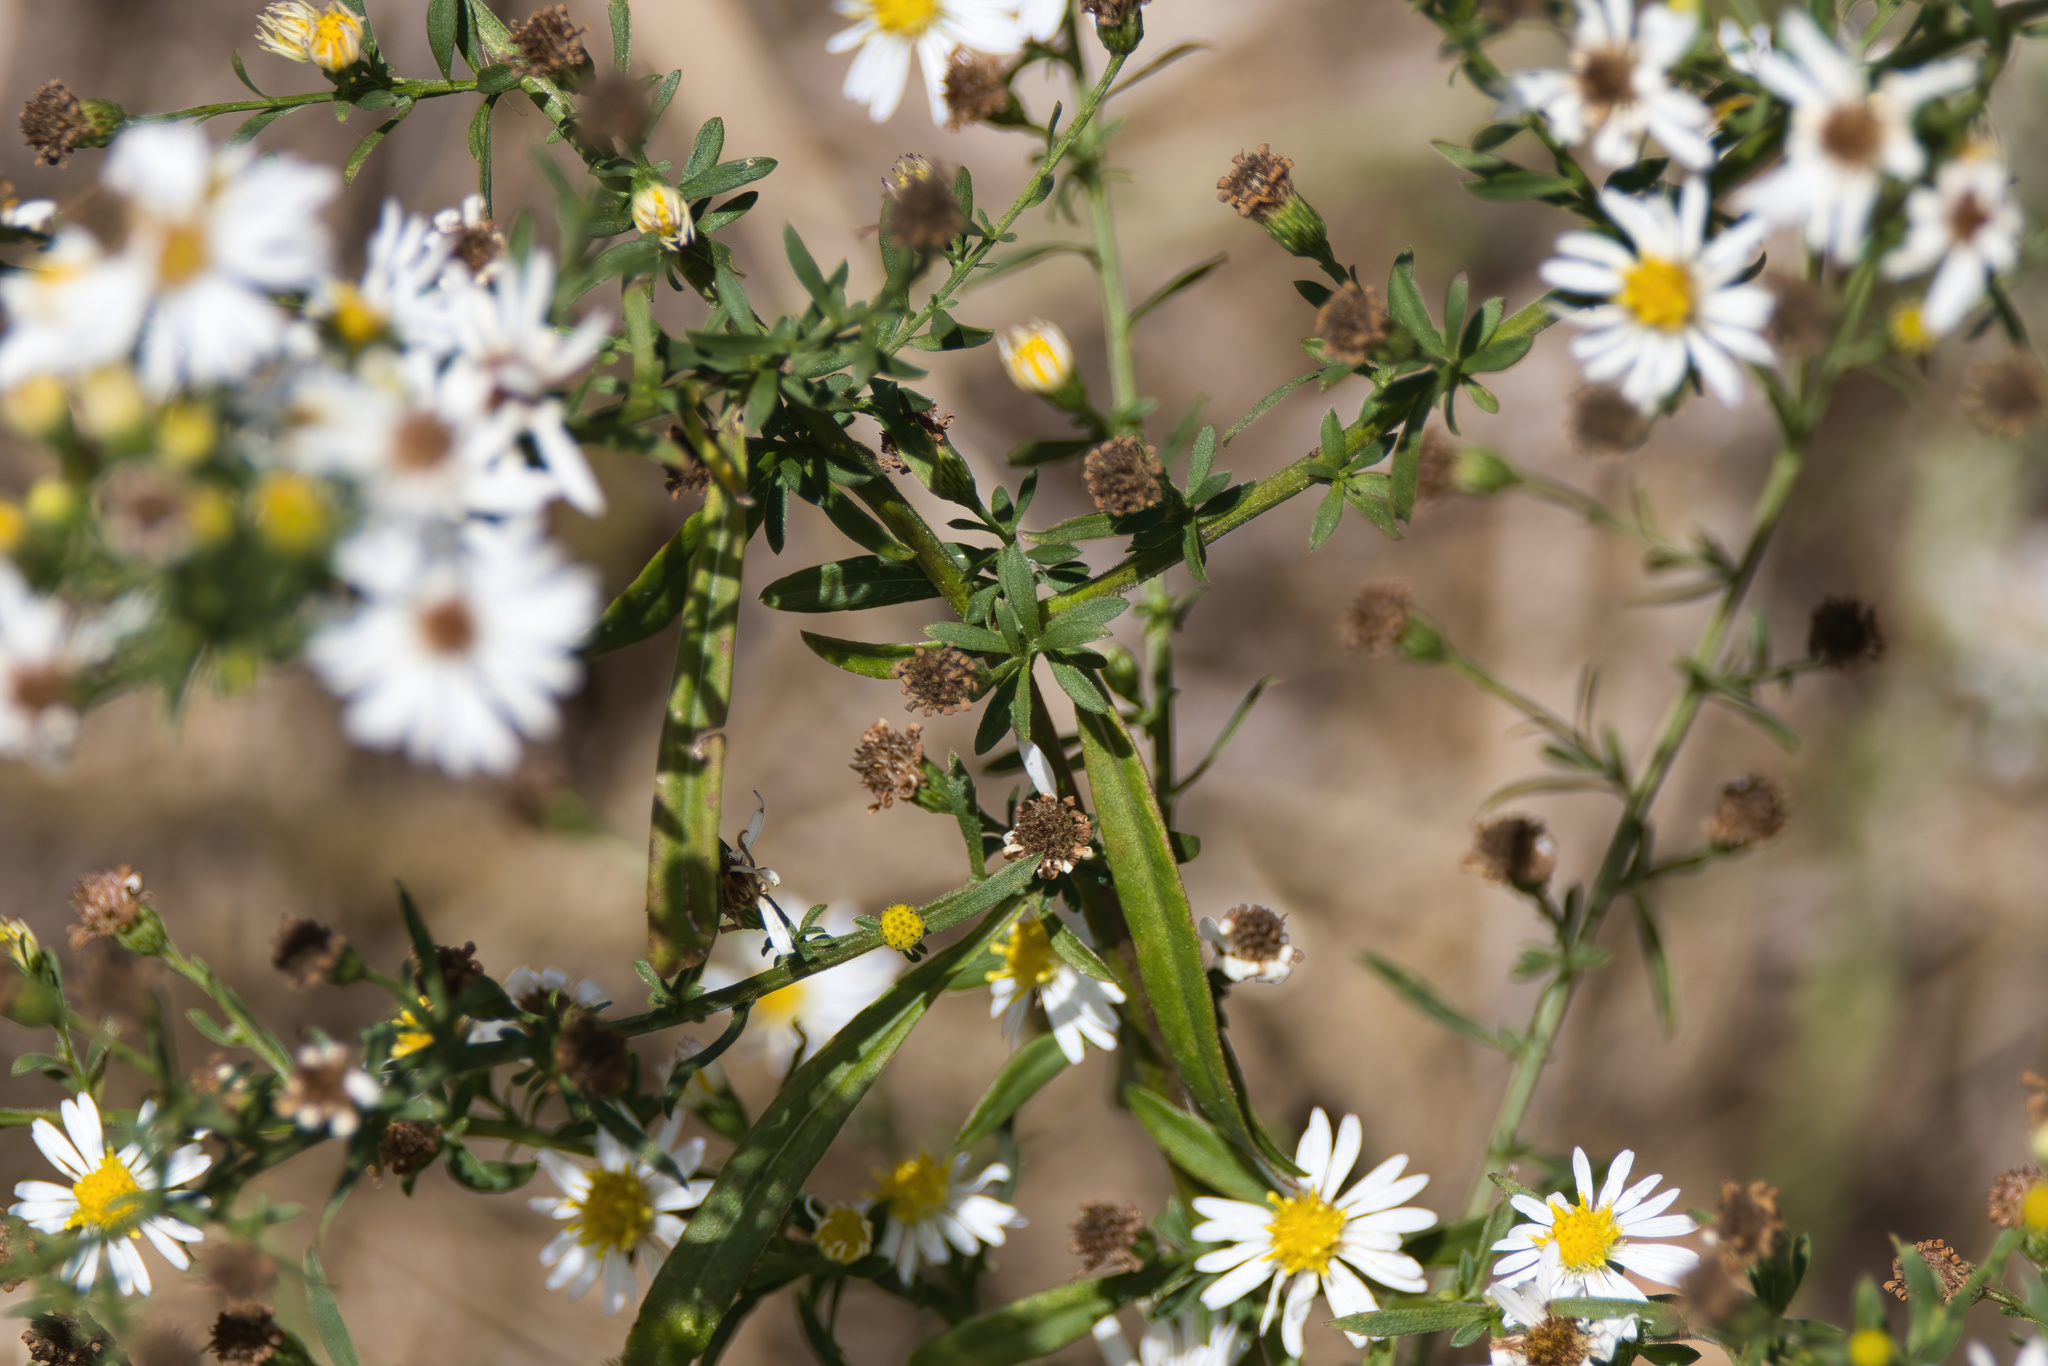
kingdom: Plantae
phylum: Tracheophyta
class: Magnoliopsida
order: Asterales
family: Asteraceae
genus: Symphyotrichum
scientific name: Symphyotrichum dumosum
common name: Bushy aster
